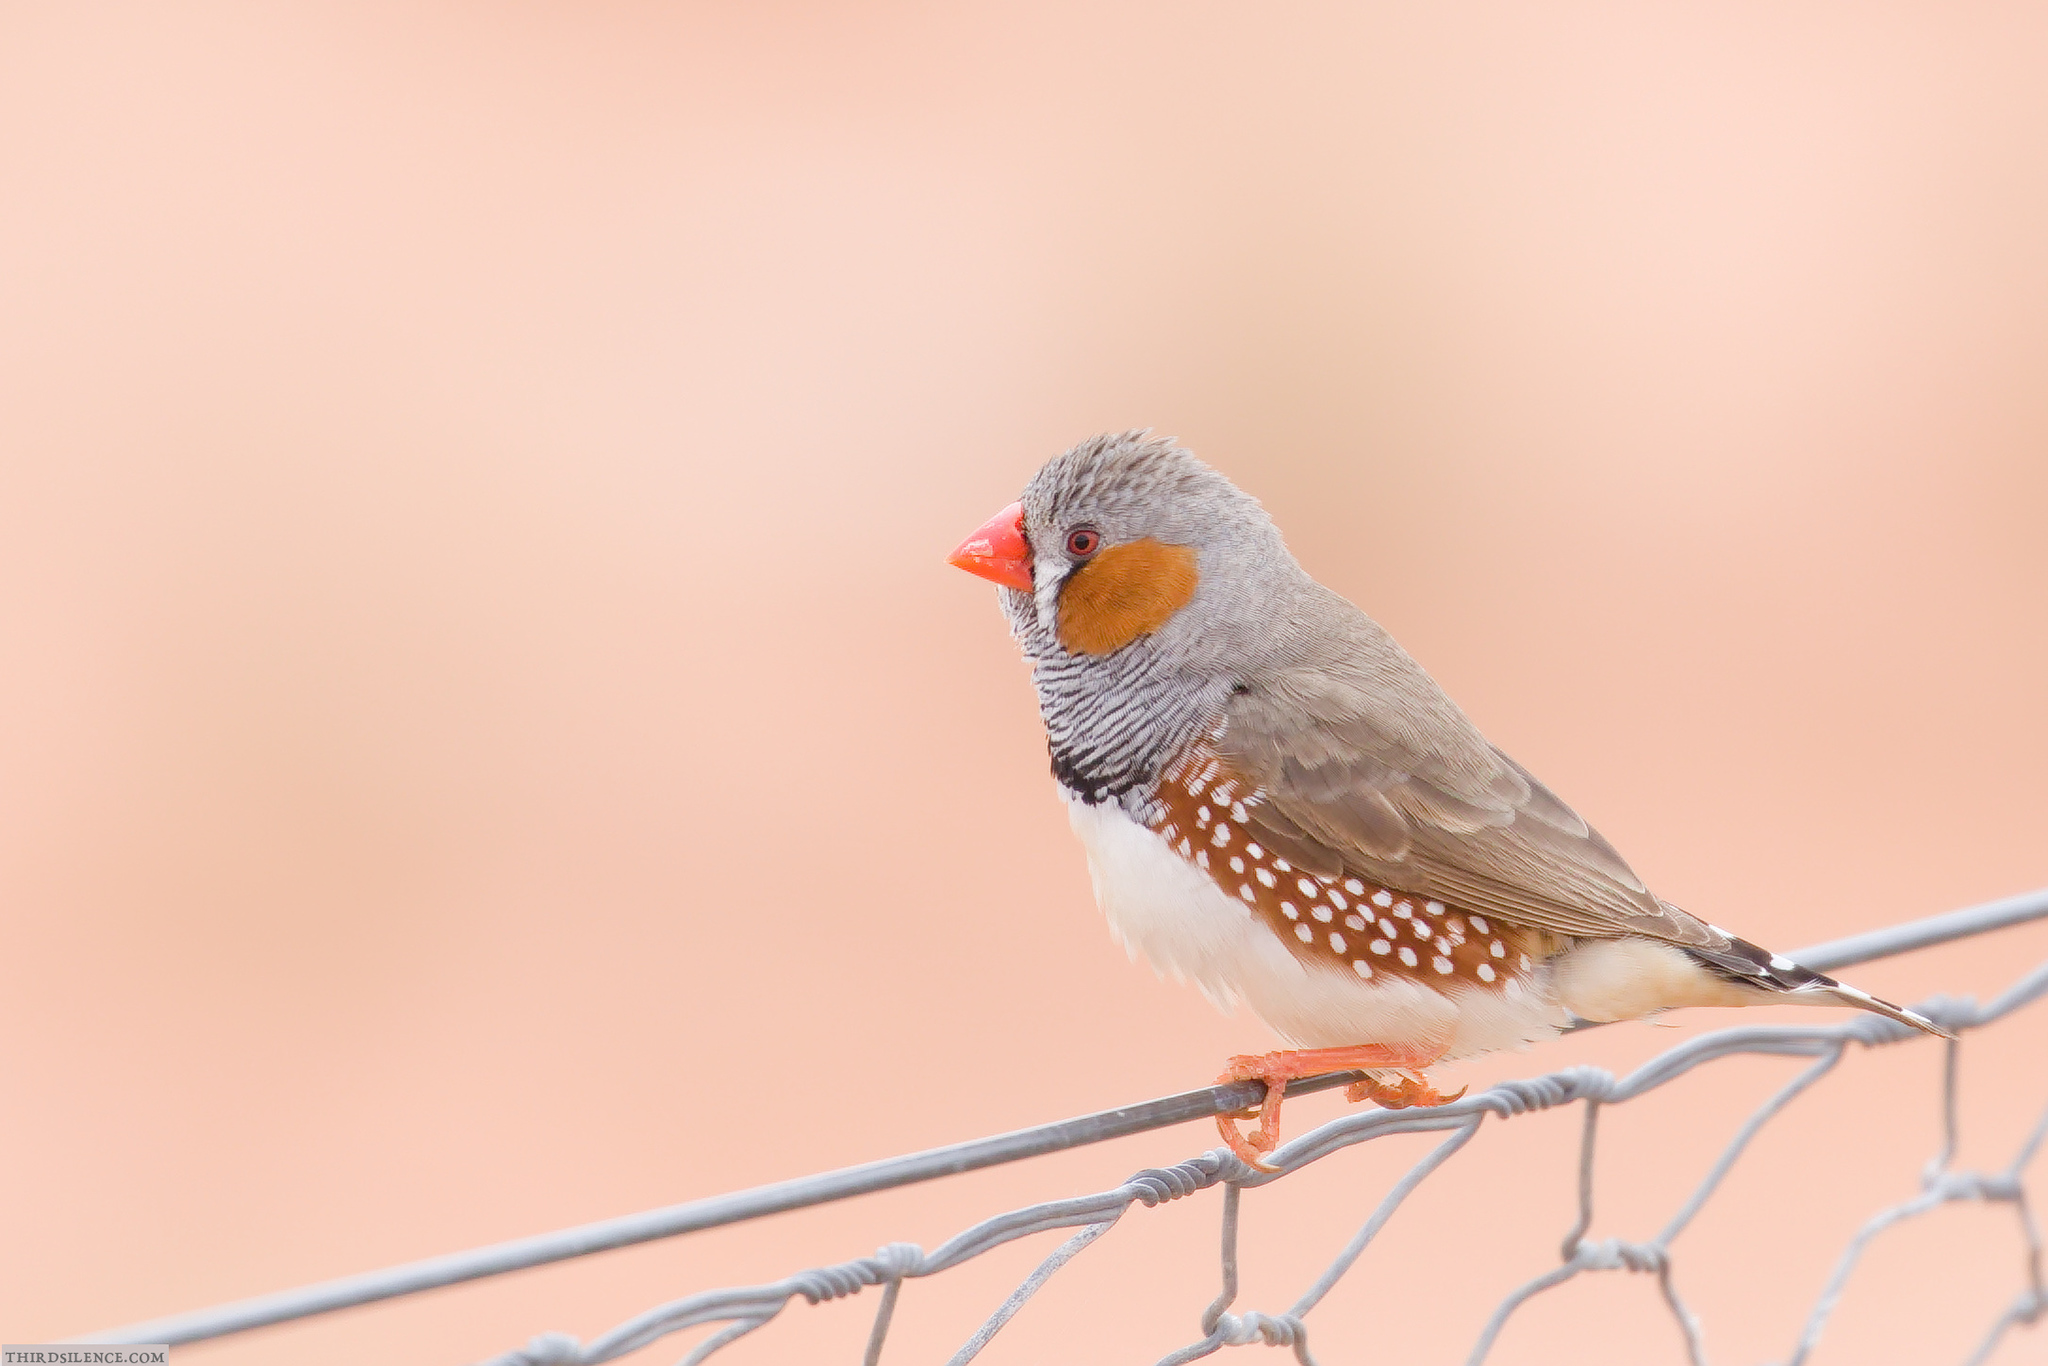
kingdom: Animalia
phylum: Chordata
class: Aves
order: Passeriformes
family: Estrildidae
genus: Taeniopygia
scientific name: Taeniopygia guttata
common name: Zebra finch
